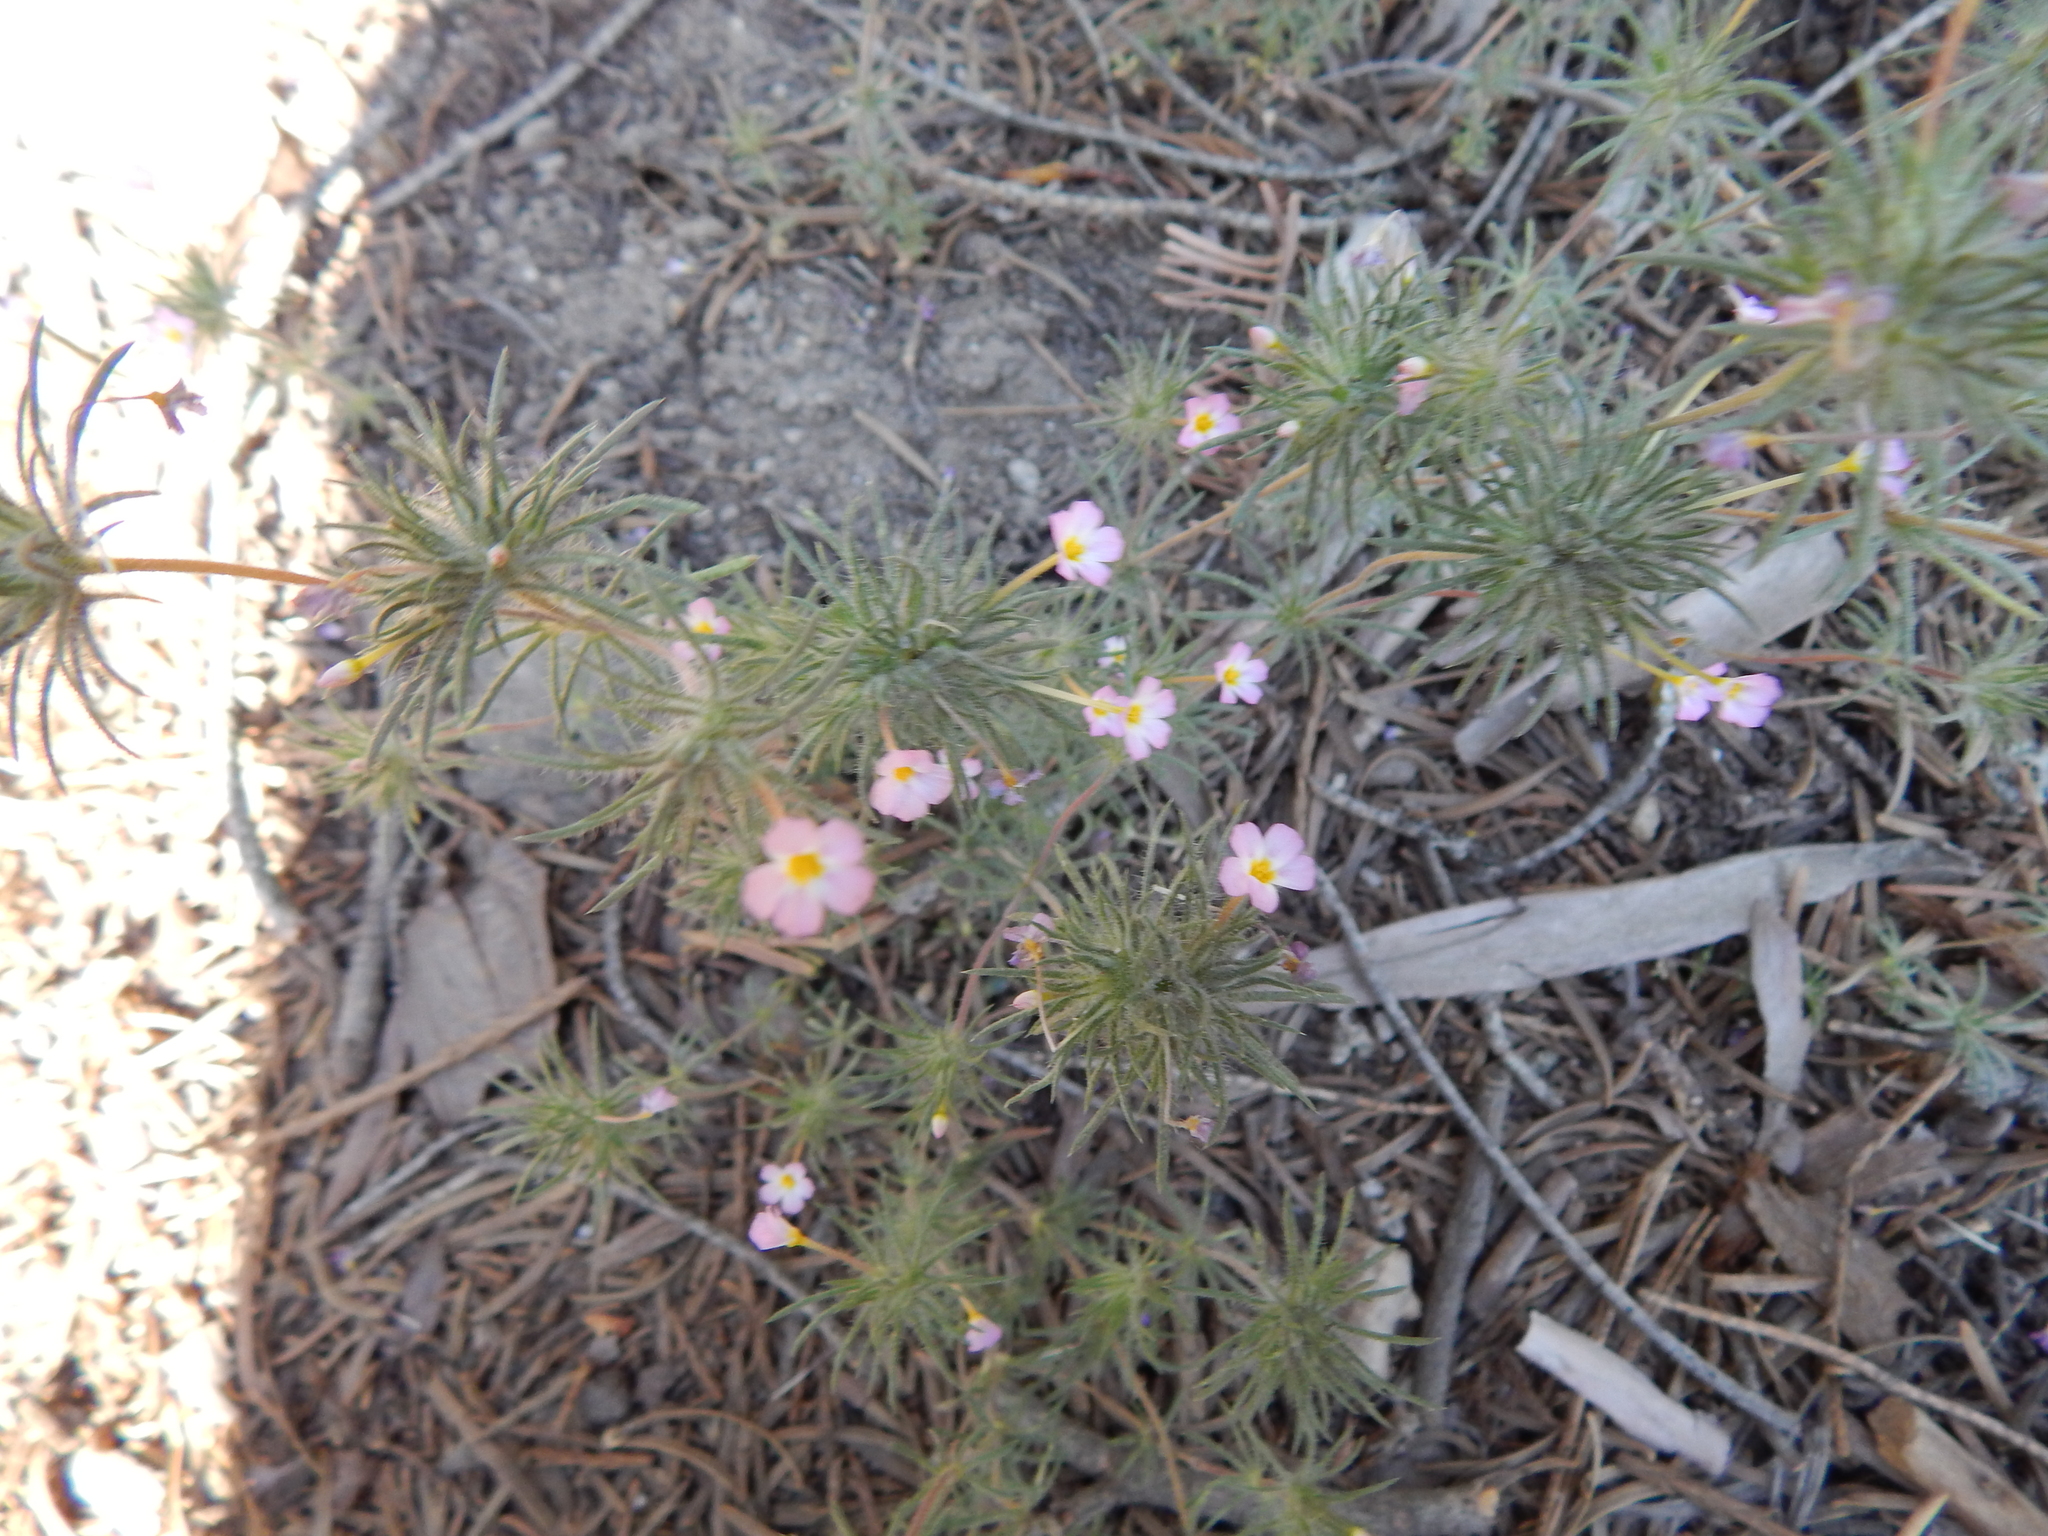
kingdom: Plantae
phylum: Tracheophyta
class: Magnoliopsida
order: Ericales
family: Polemoniaceae
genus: Leptosiphon
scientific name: Leptosiphon ciliatus
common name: Whiskerbrush
